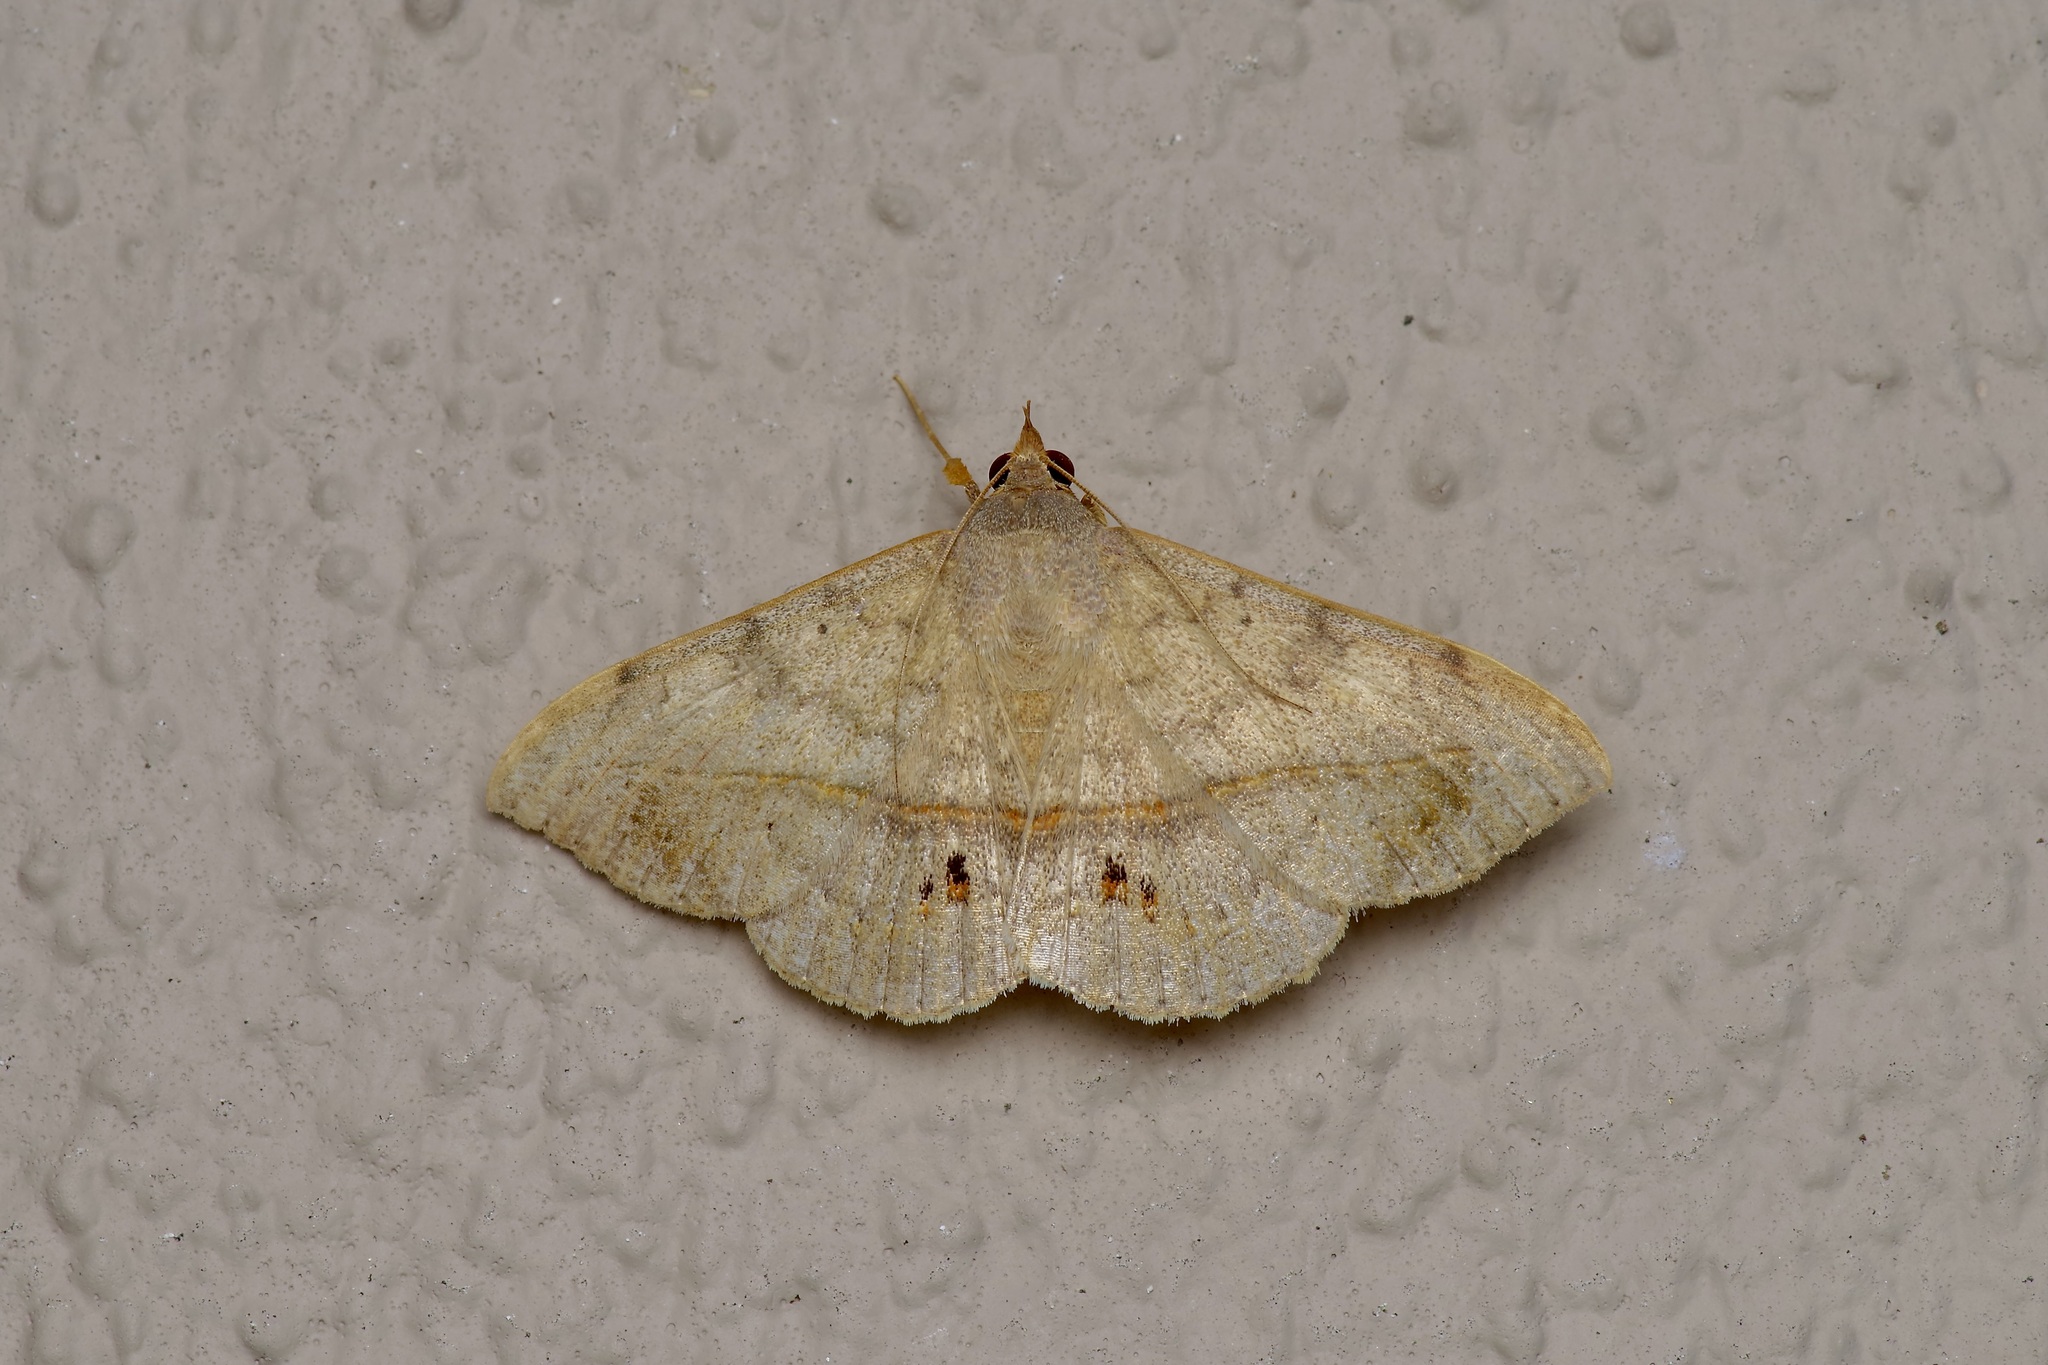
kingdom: Animalia
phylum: Arthropoda
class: Insecta
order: Lepidoptera
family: Erebidae
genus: Anticarsia
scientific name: Anticarsia gemmatalis
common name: Cutworm moth
